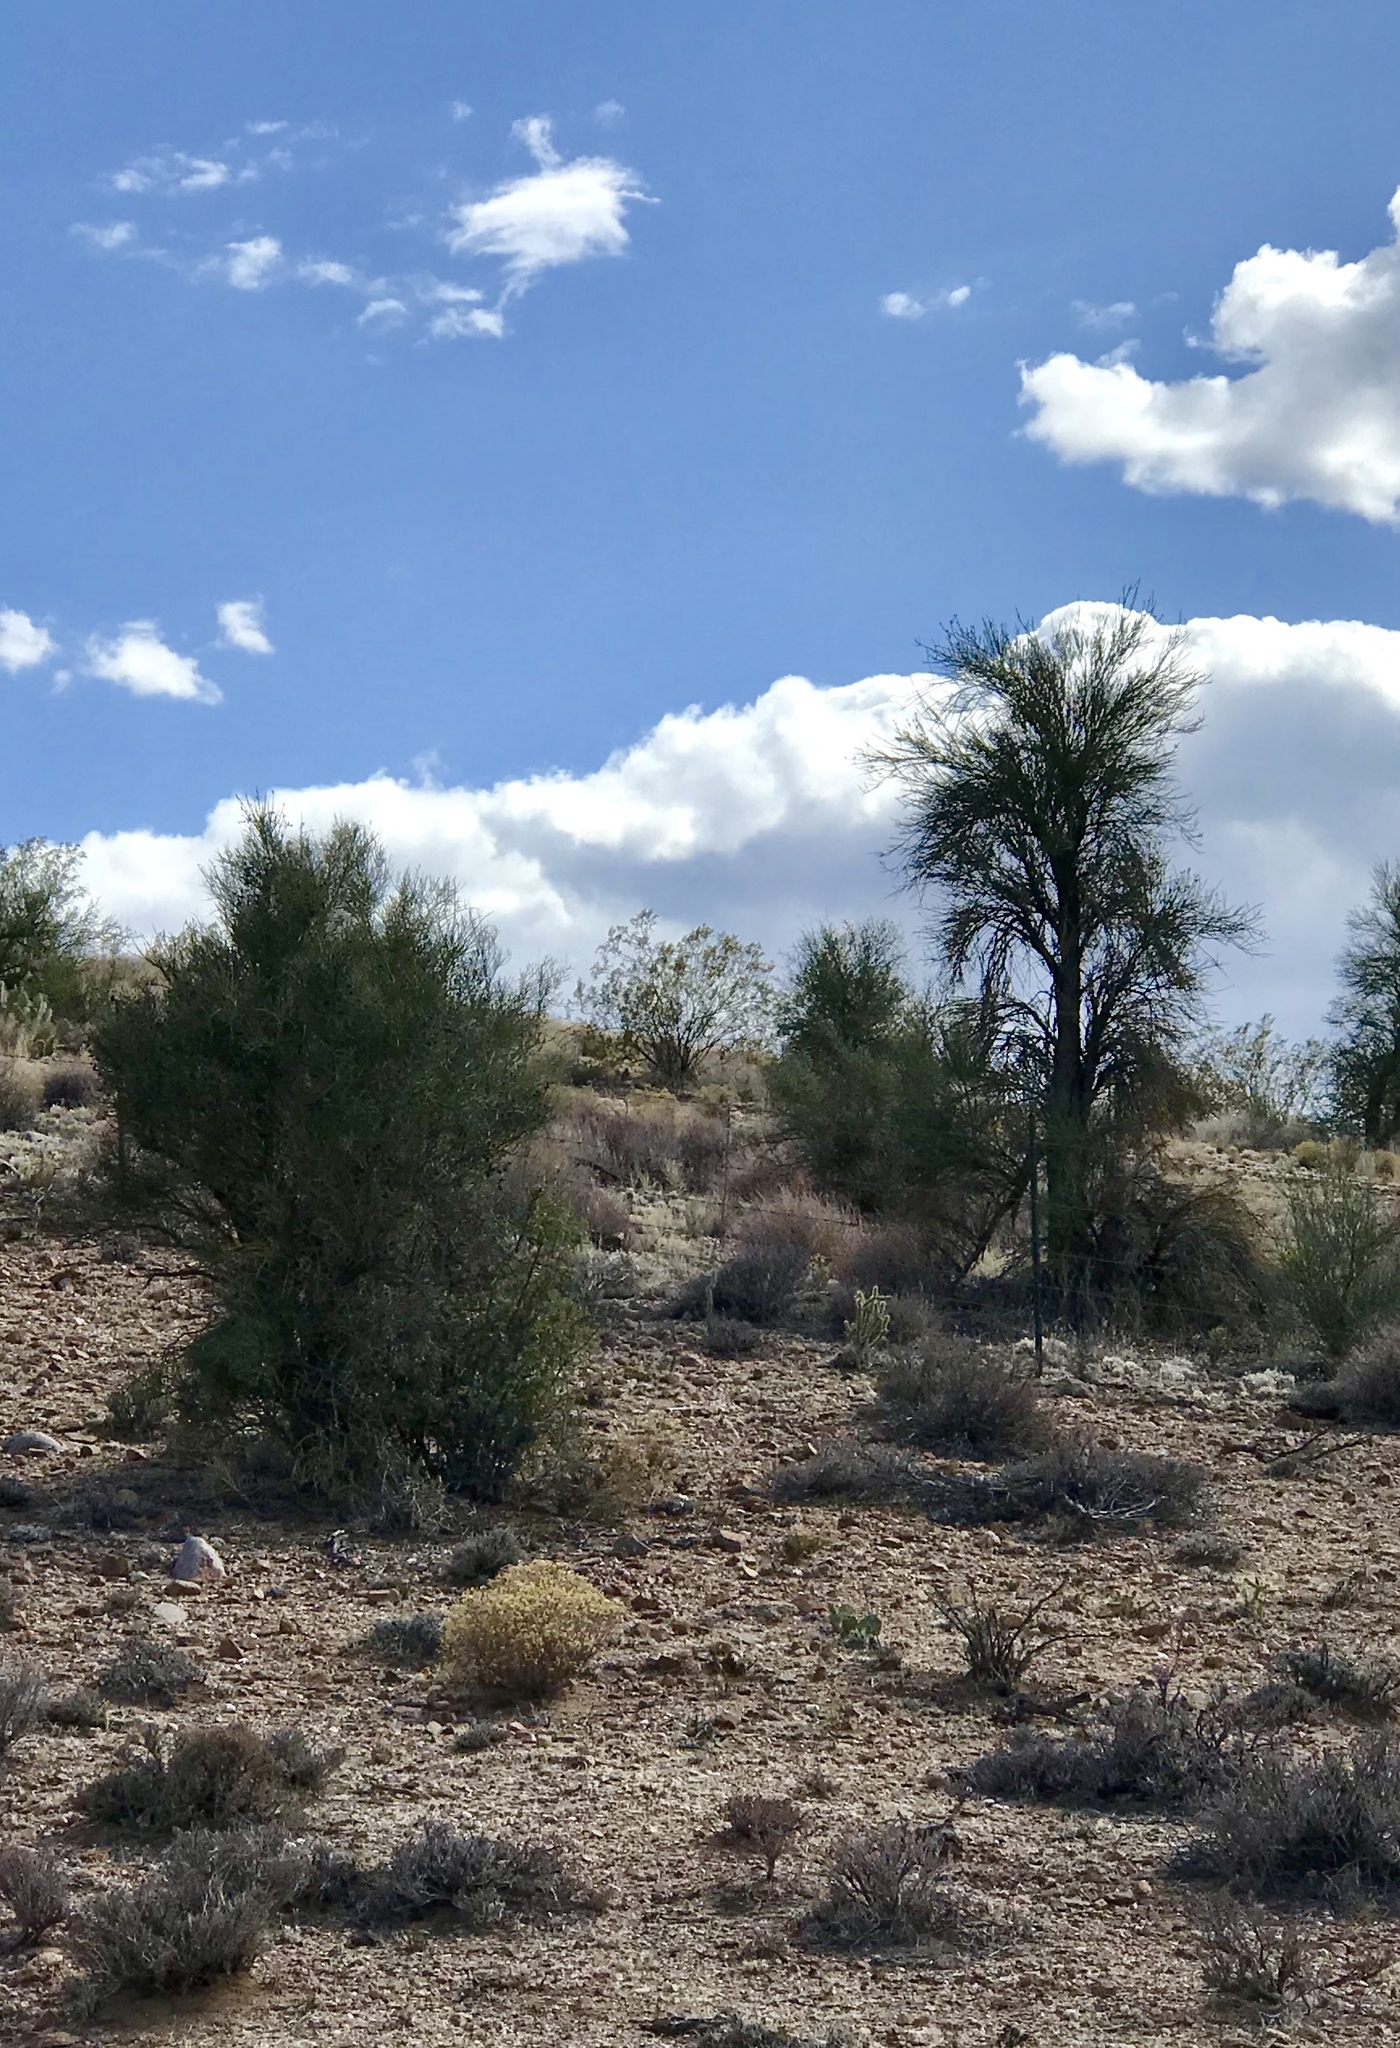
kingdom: Plantae
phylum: Tracheophyta
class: Magnoliopsida
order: Celastrales
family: Celastraceae
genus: Canotia
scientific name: Canotia holacantha
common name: Crucifixion thorns
